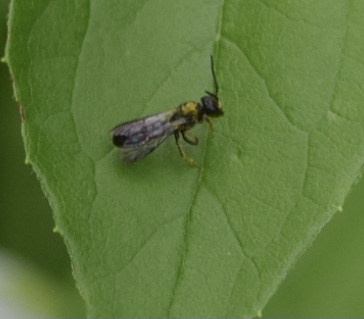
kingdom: Animalia
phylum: Arthropoda
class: Insecta
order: Hymenoptera
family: Megachilidae
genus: Chelostoma
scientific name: Chelostoma philadelphi
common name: Mock-orange scissor bee
